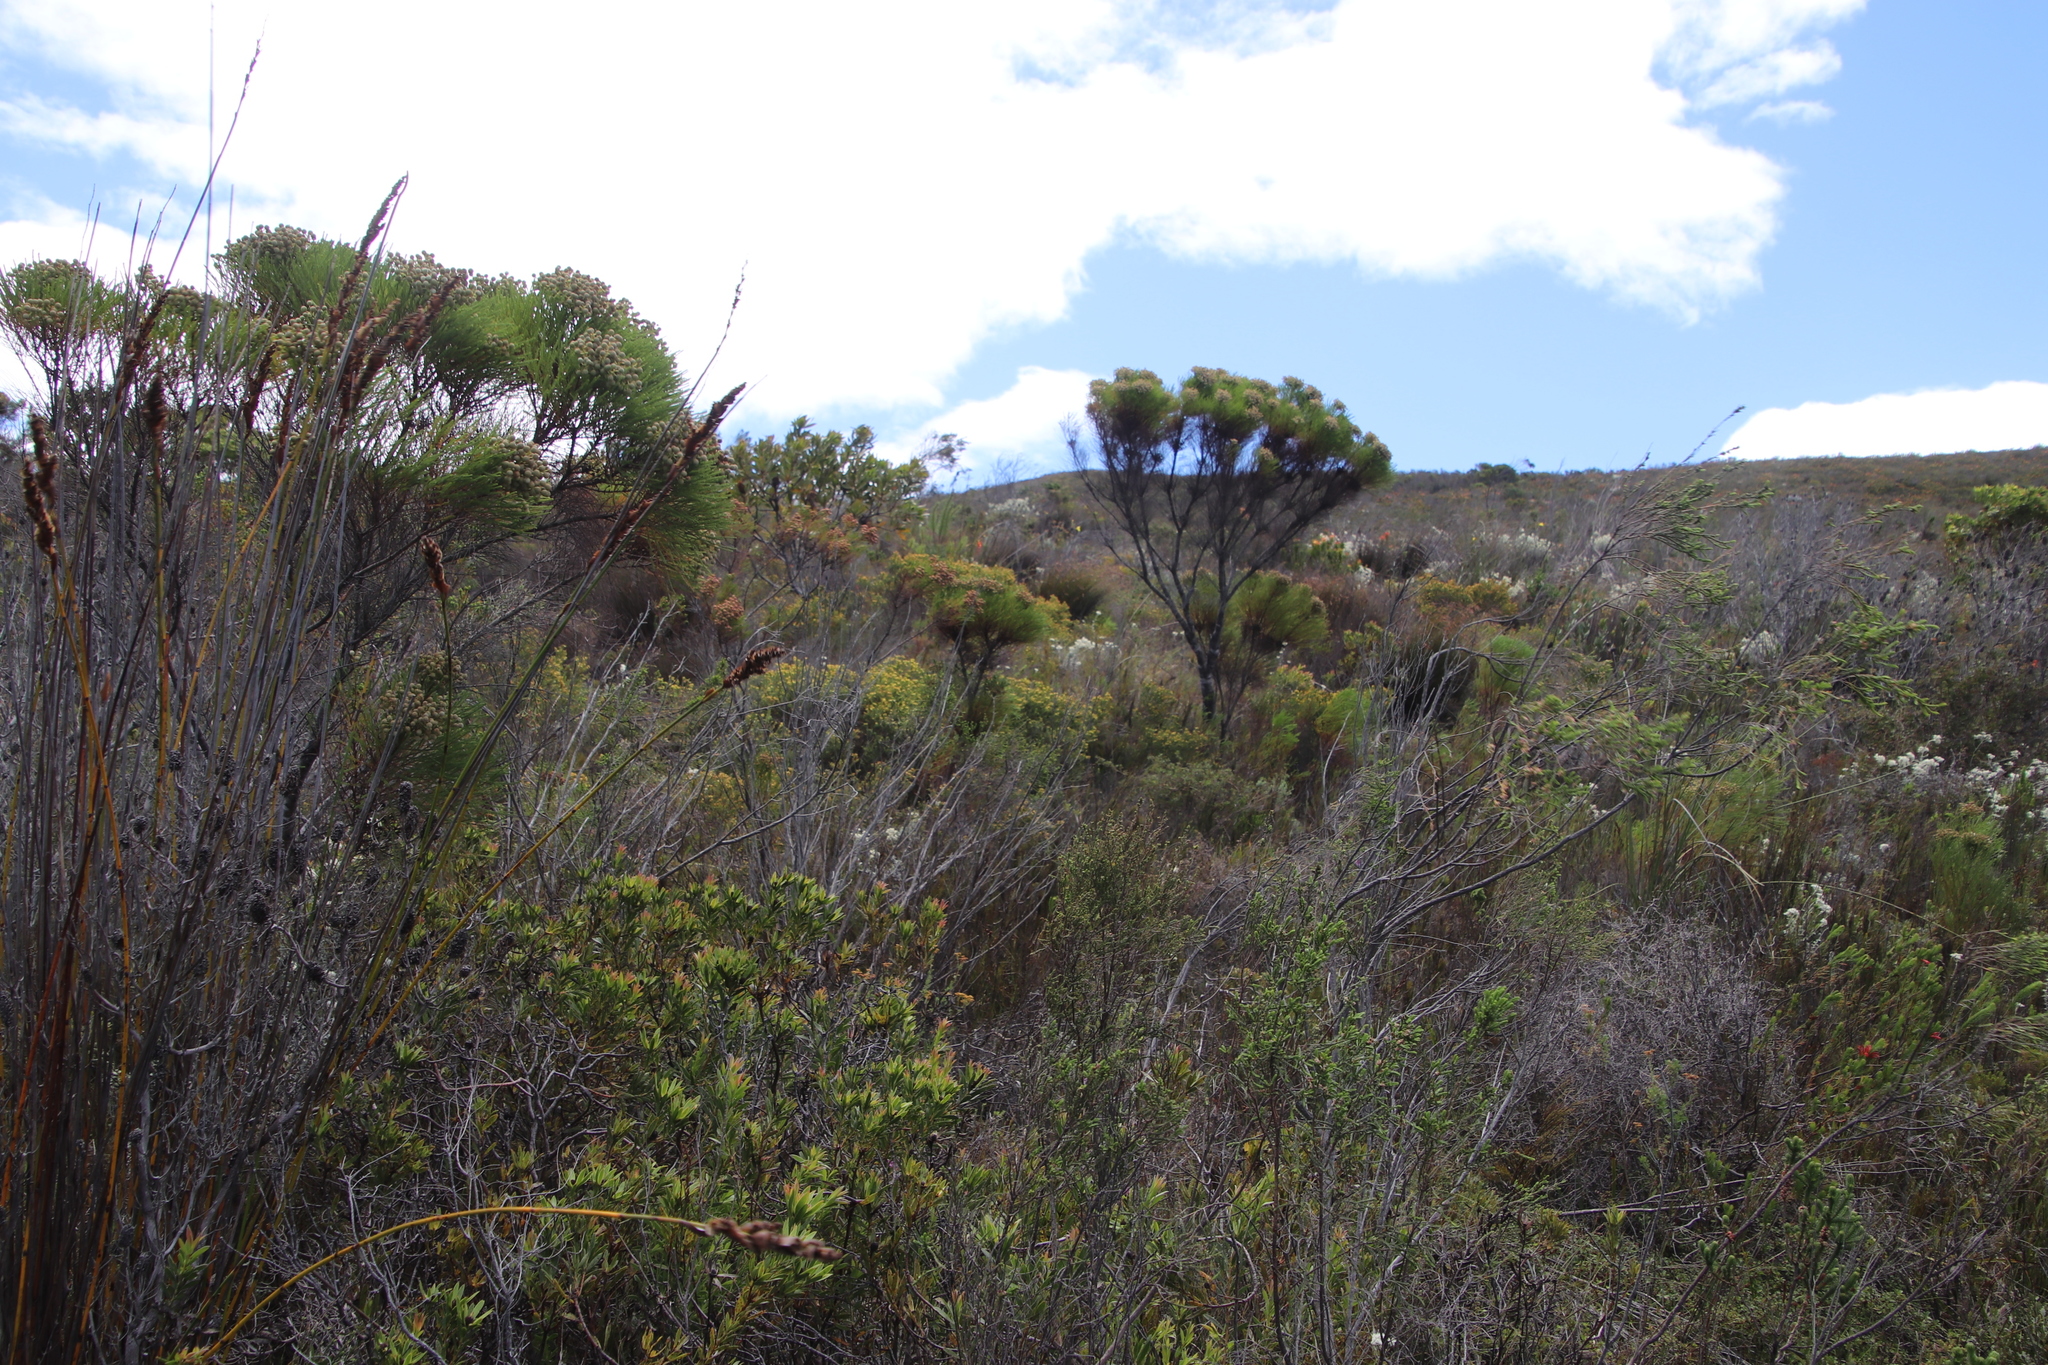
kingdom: Plantae
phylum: Tracheophyta
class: Magnoliopsida
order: Bruniales
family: Bruniaceae
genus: Berzelia
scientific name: Berzelia lanuginosa
